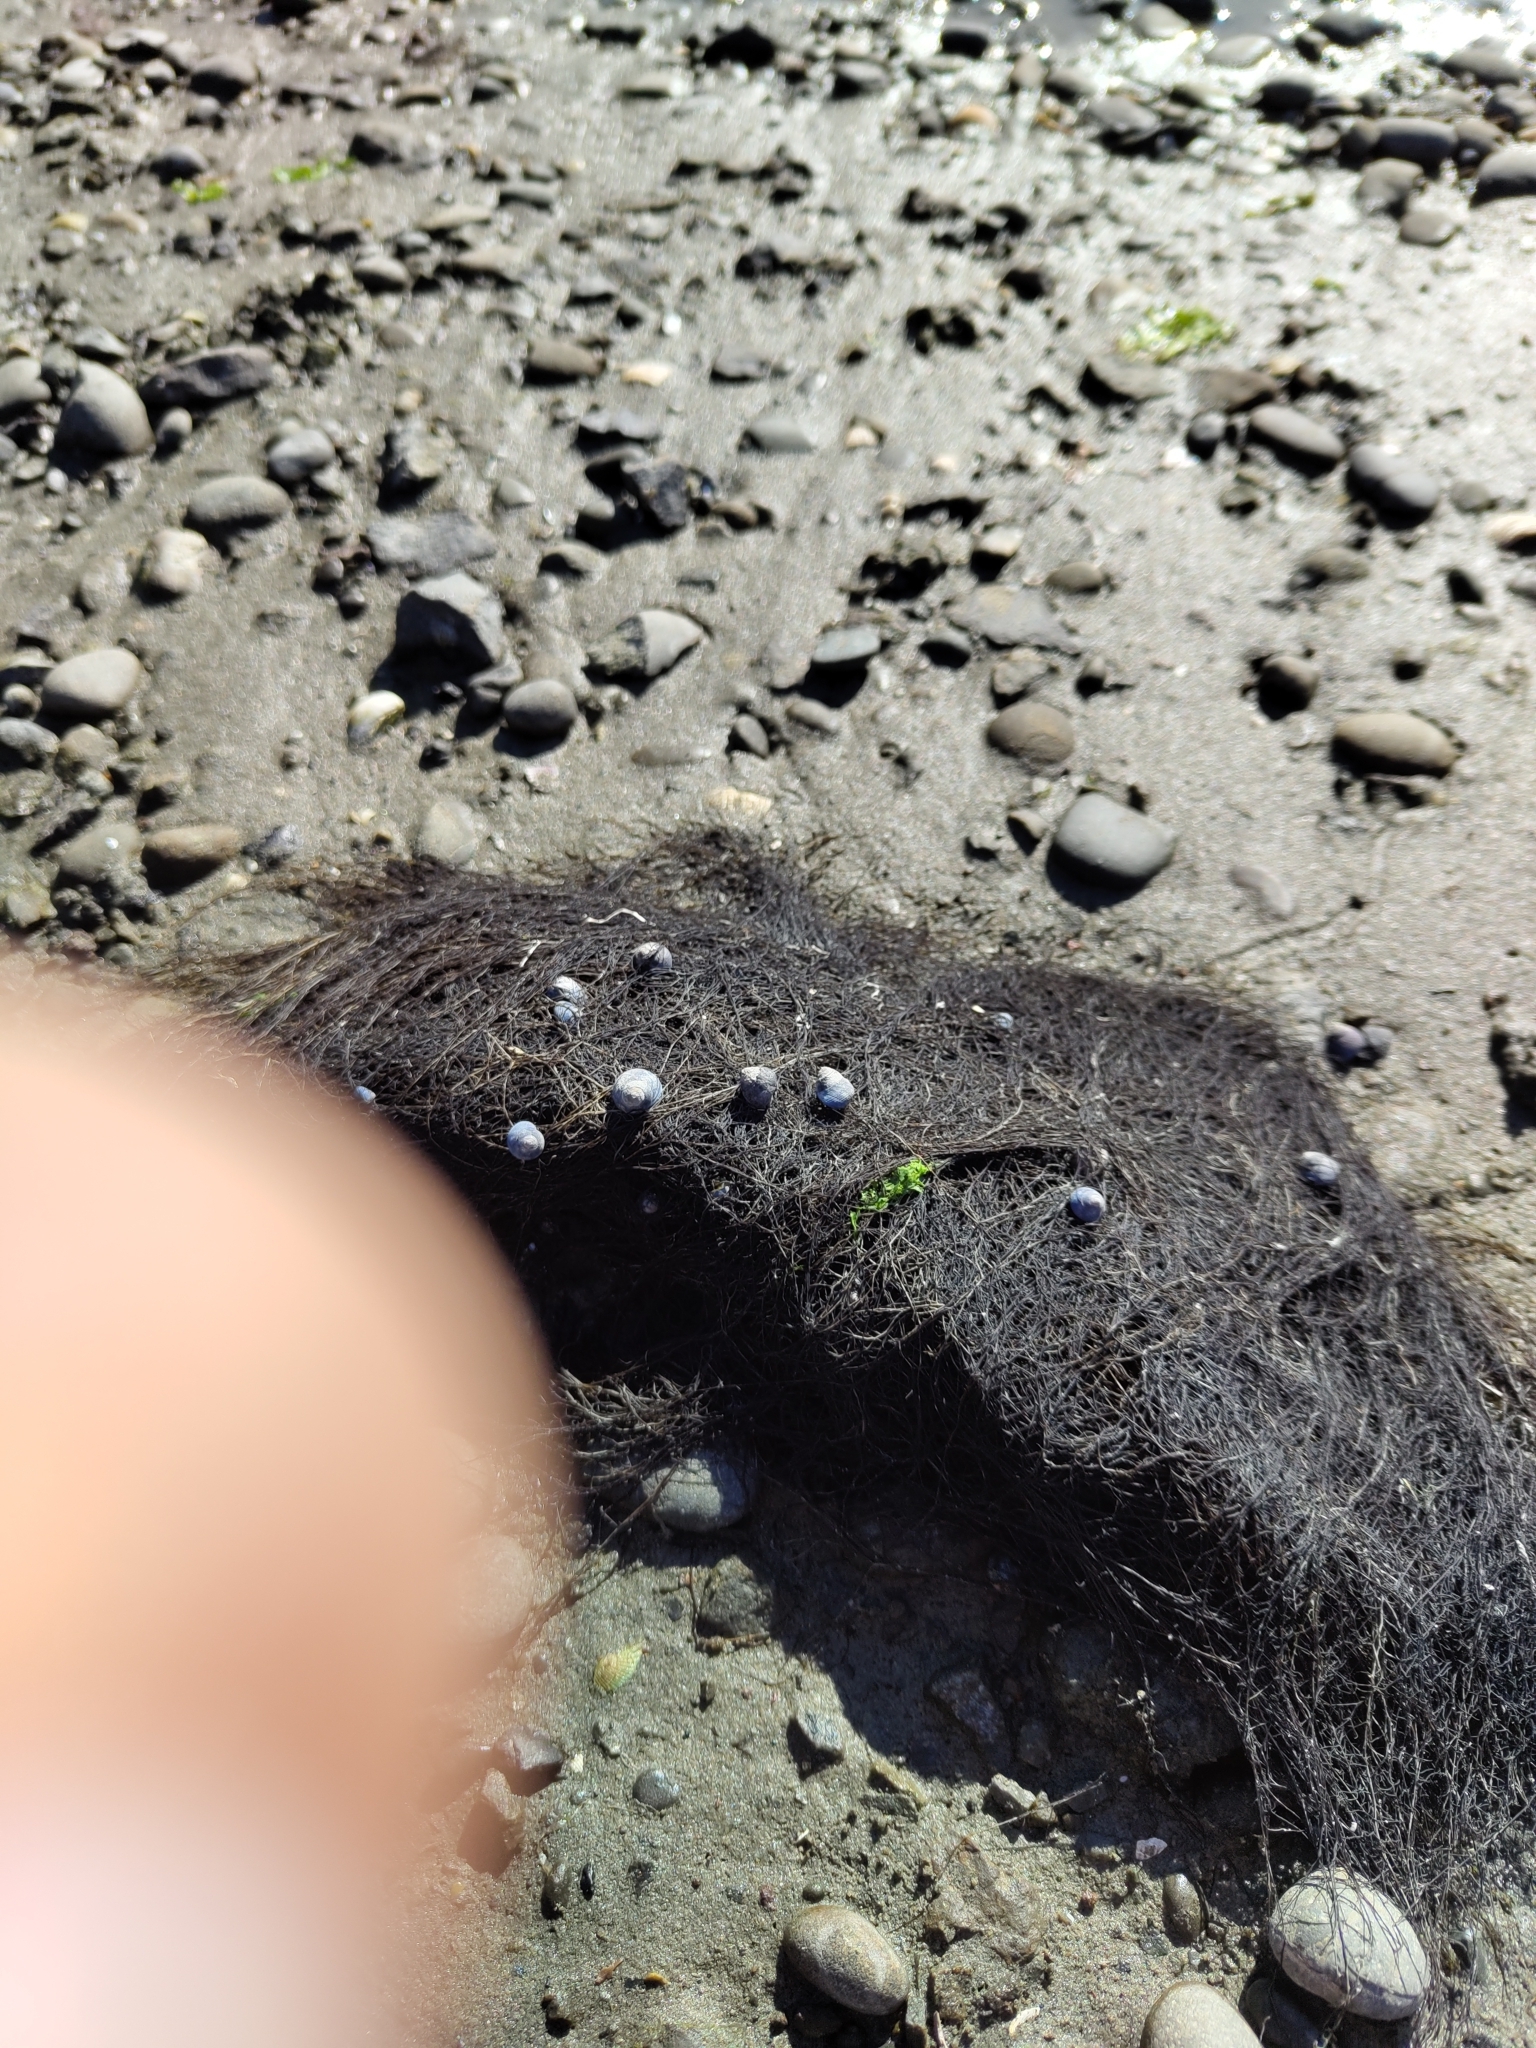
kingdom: Animalia
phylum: Mollusca
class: Gastropoda
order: Trochida
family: Trochidae
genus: Micrelenchus
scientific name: Micrelenchus huttonii
